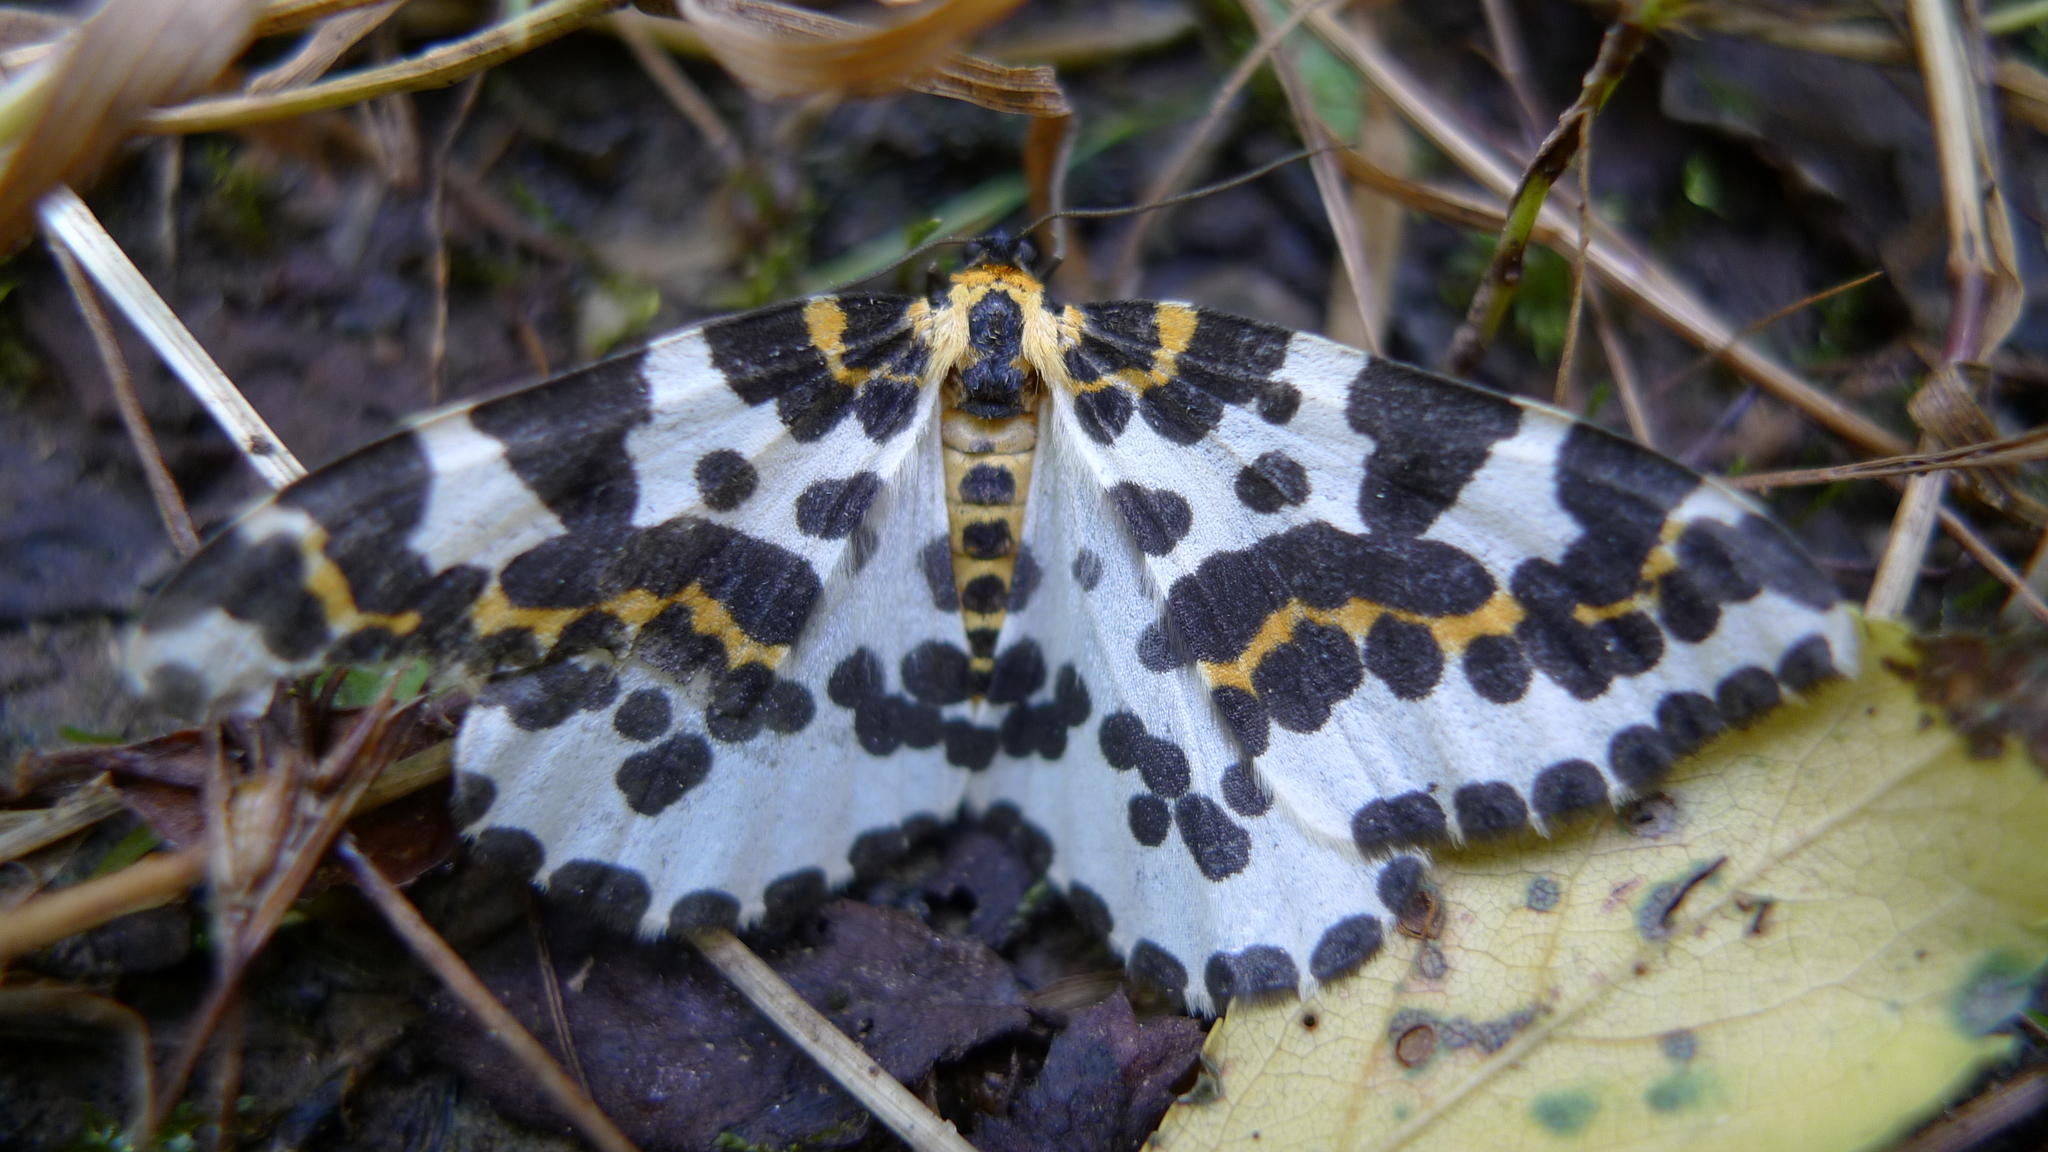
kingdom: Animalia
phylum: Arthropoda
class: Insecta
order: Lepidoptera
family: Geometridae
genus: Abraxas
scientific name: Abraxas grossulariata
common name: Magpie
